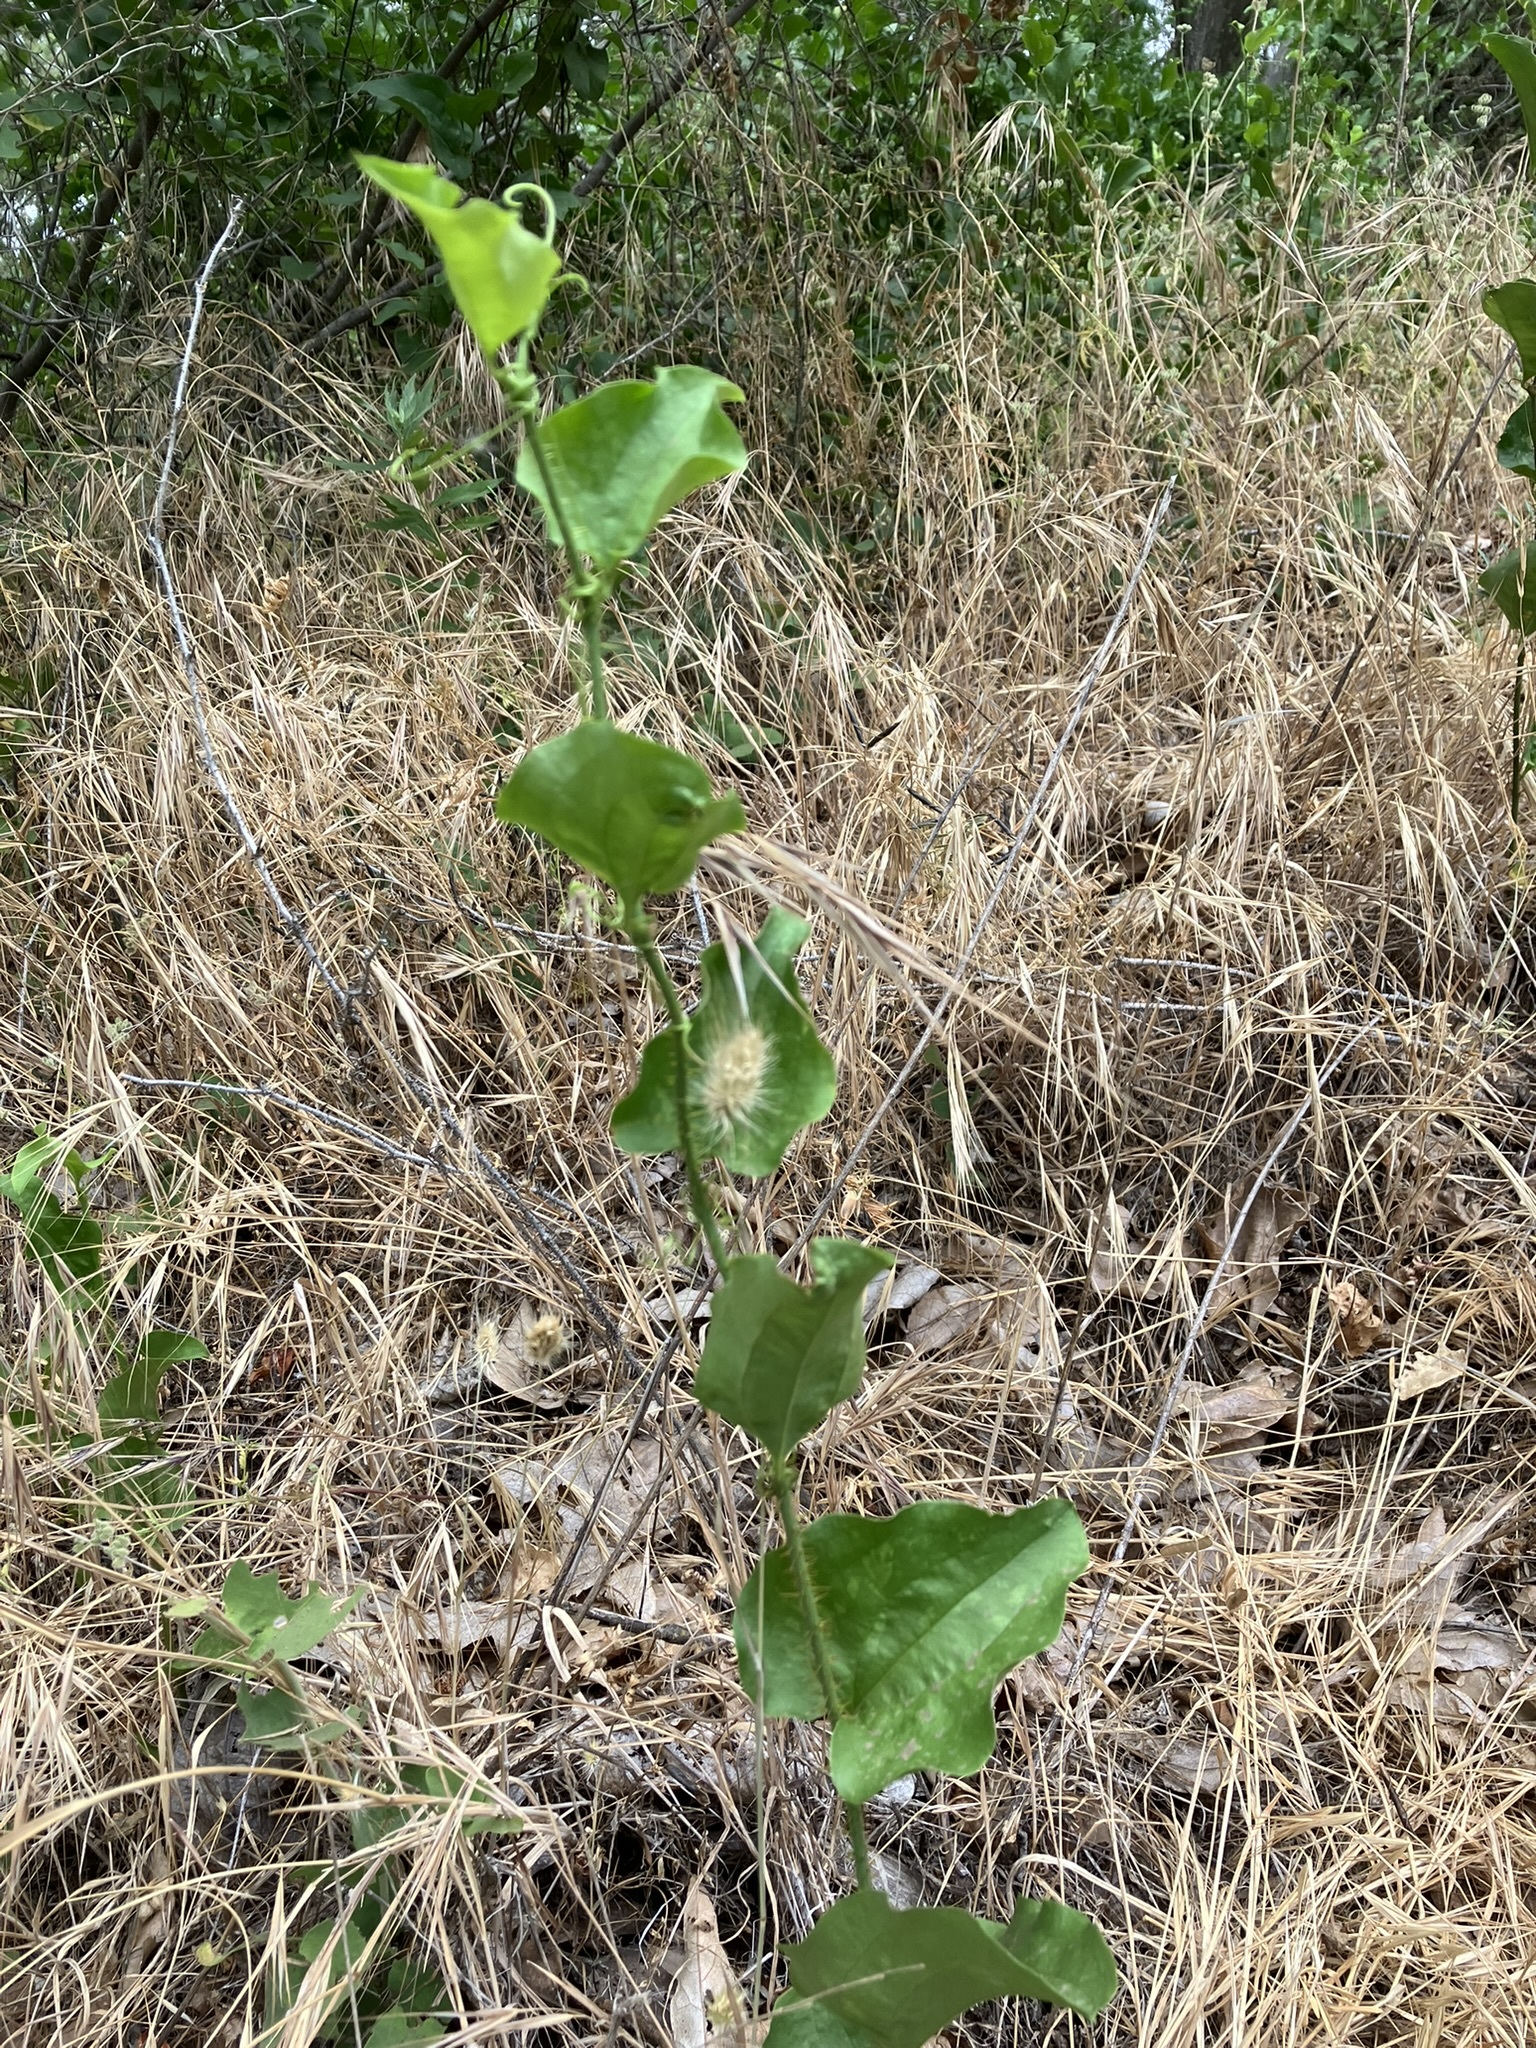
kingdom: Plantae
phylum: Tracheophyta
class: Liliopsida
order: Liliales
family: Smilacaceae
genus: Smilax
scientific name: Smilax californica
